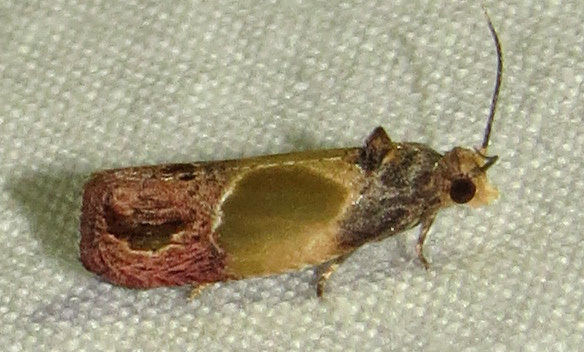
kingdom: Animalia
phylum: Arthropoda
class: Insecta
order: Lepidoptera
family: Tortricidae
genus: Eumarozia
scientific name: Eumarozia malachitana
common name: Sculptured moth
